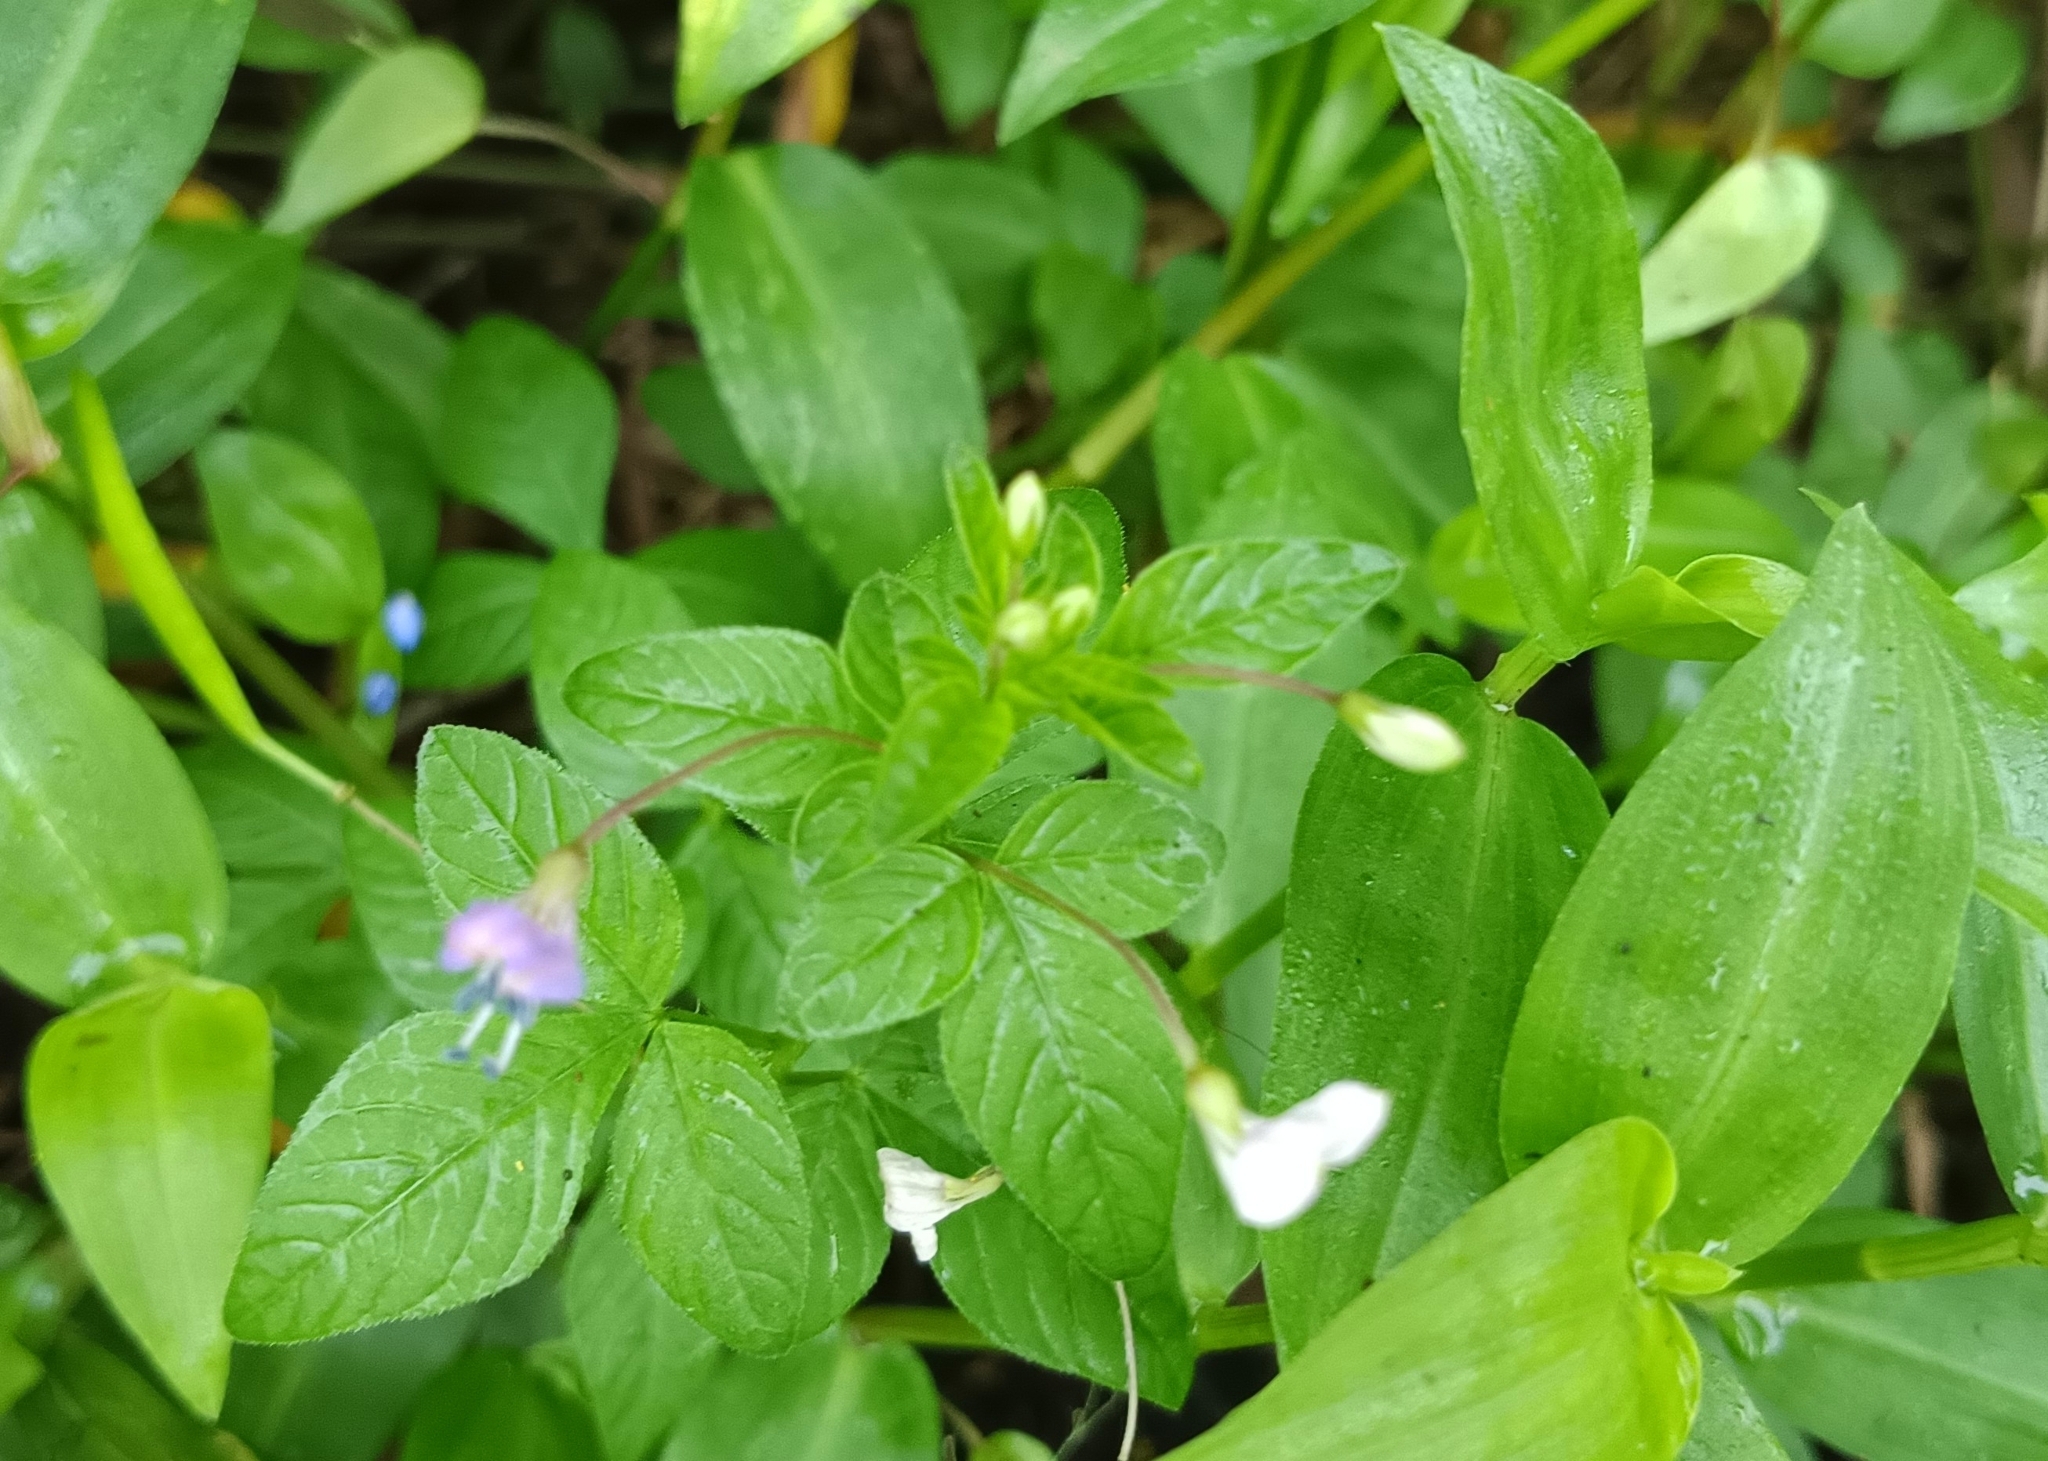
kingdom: Plantae
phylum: Tracheophyta
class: Magnoliopsida
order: Brassicales
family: Cleomaceae
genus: Sieruela
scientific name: Sieruela rutidosperma
